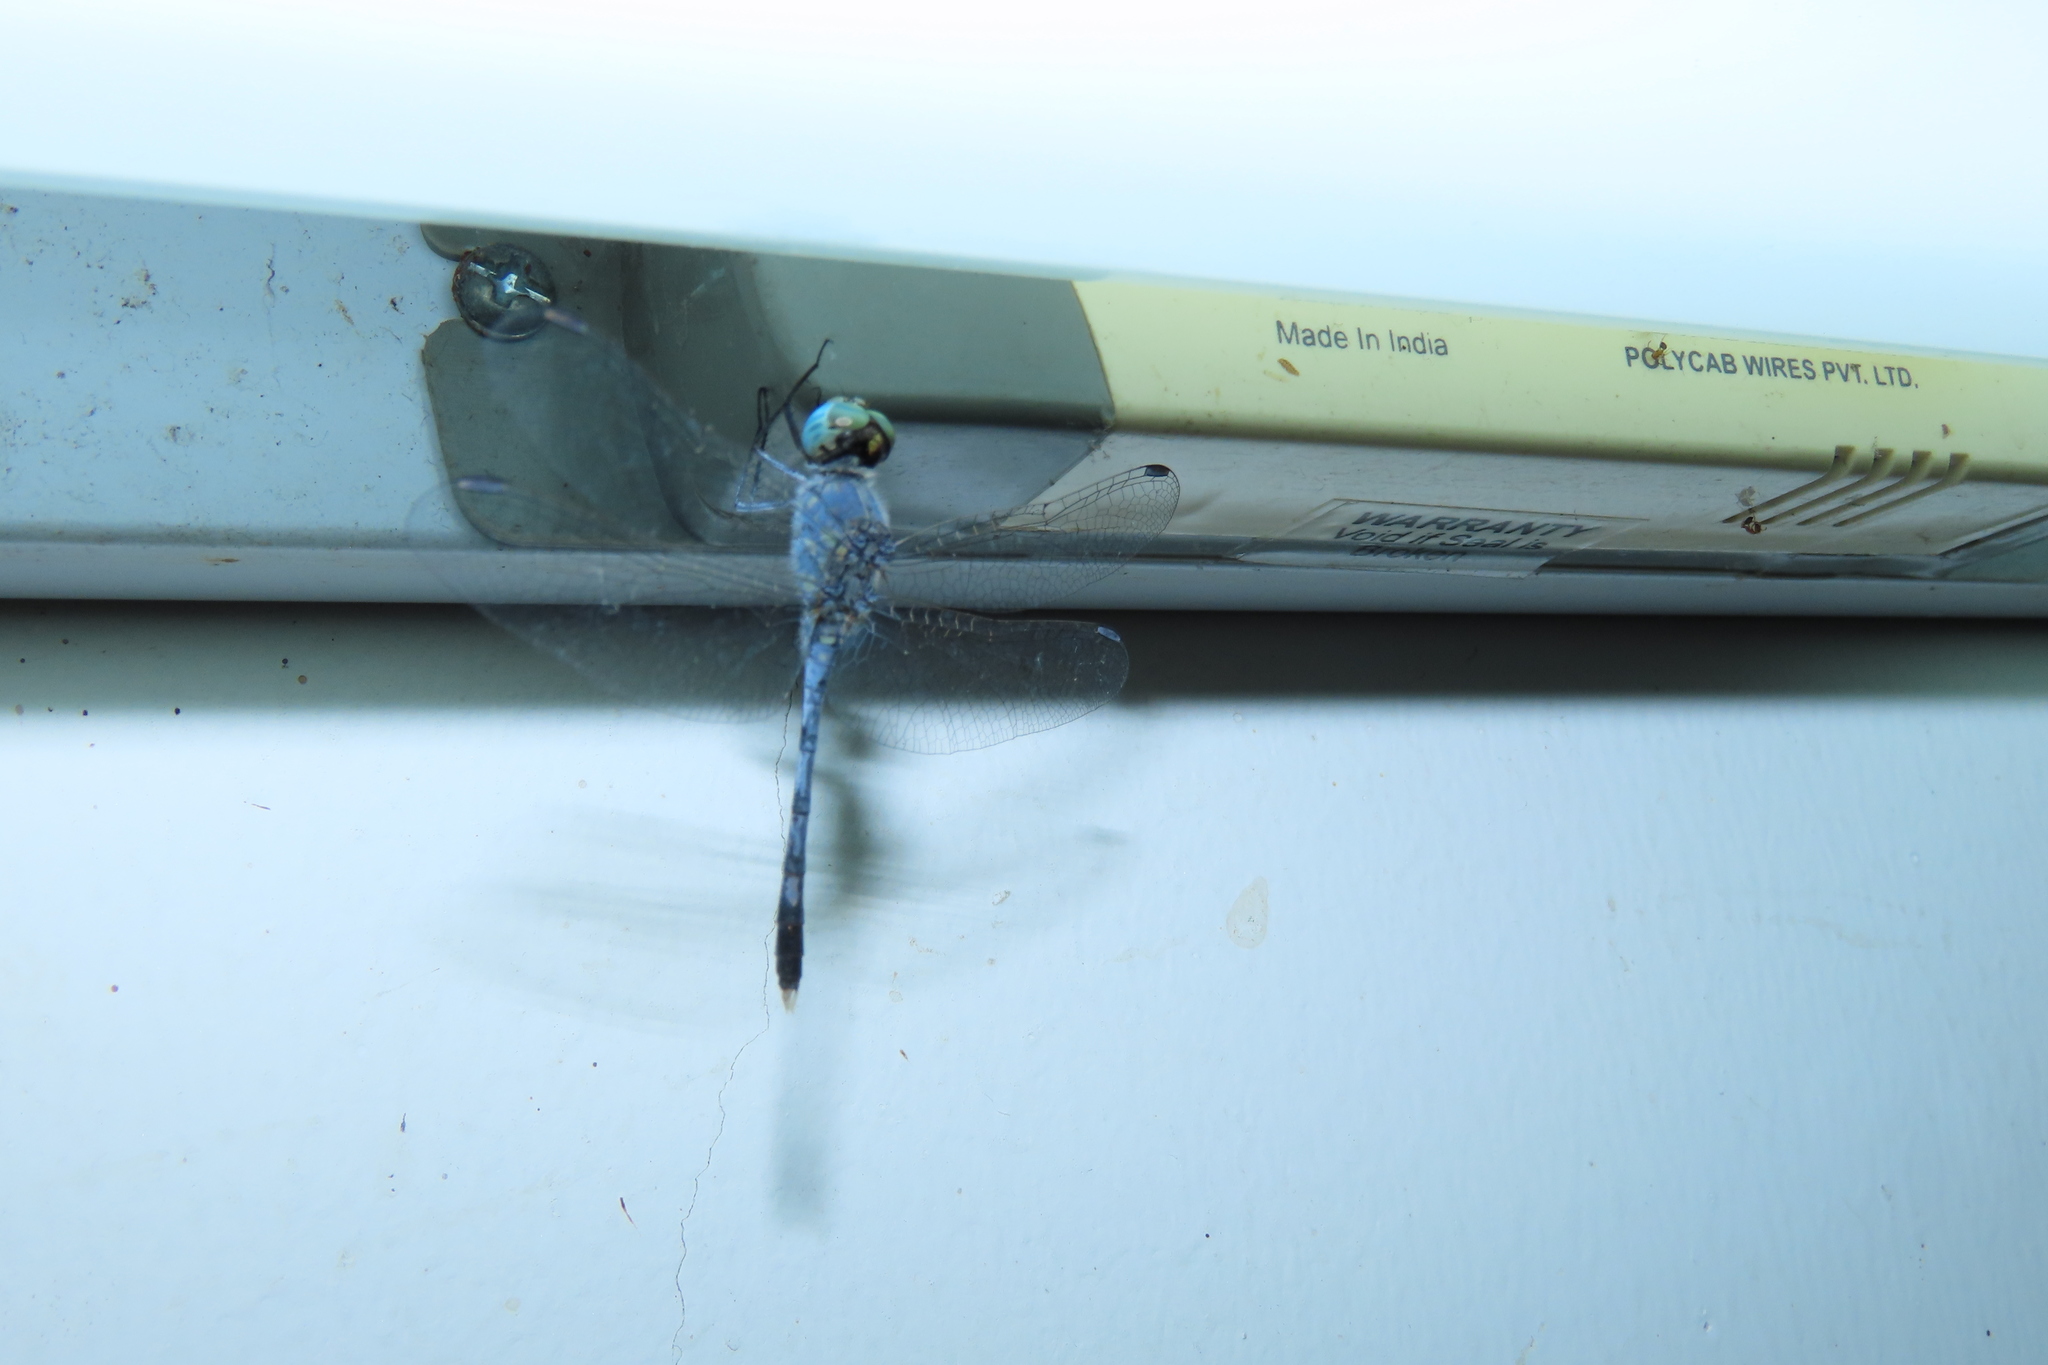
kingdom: Animalia
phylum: Arthropoda
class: Insecta
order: Odonata
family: Libellulidae
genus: Diplacodes
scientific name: Diplacodes trivialis
